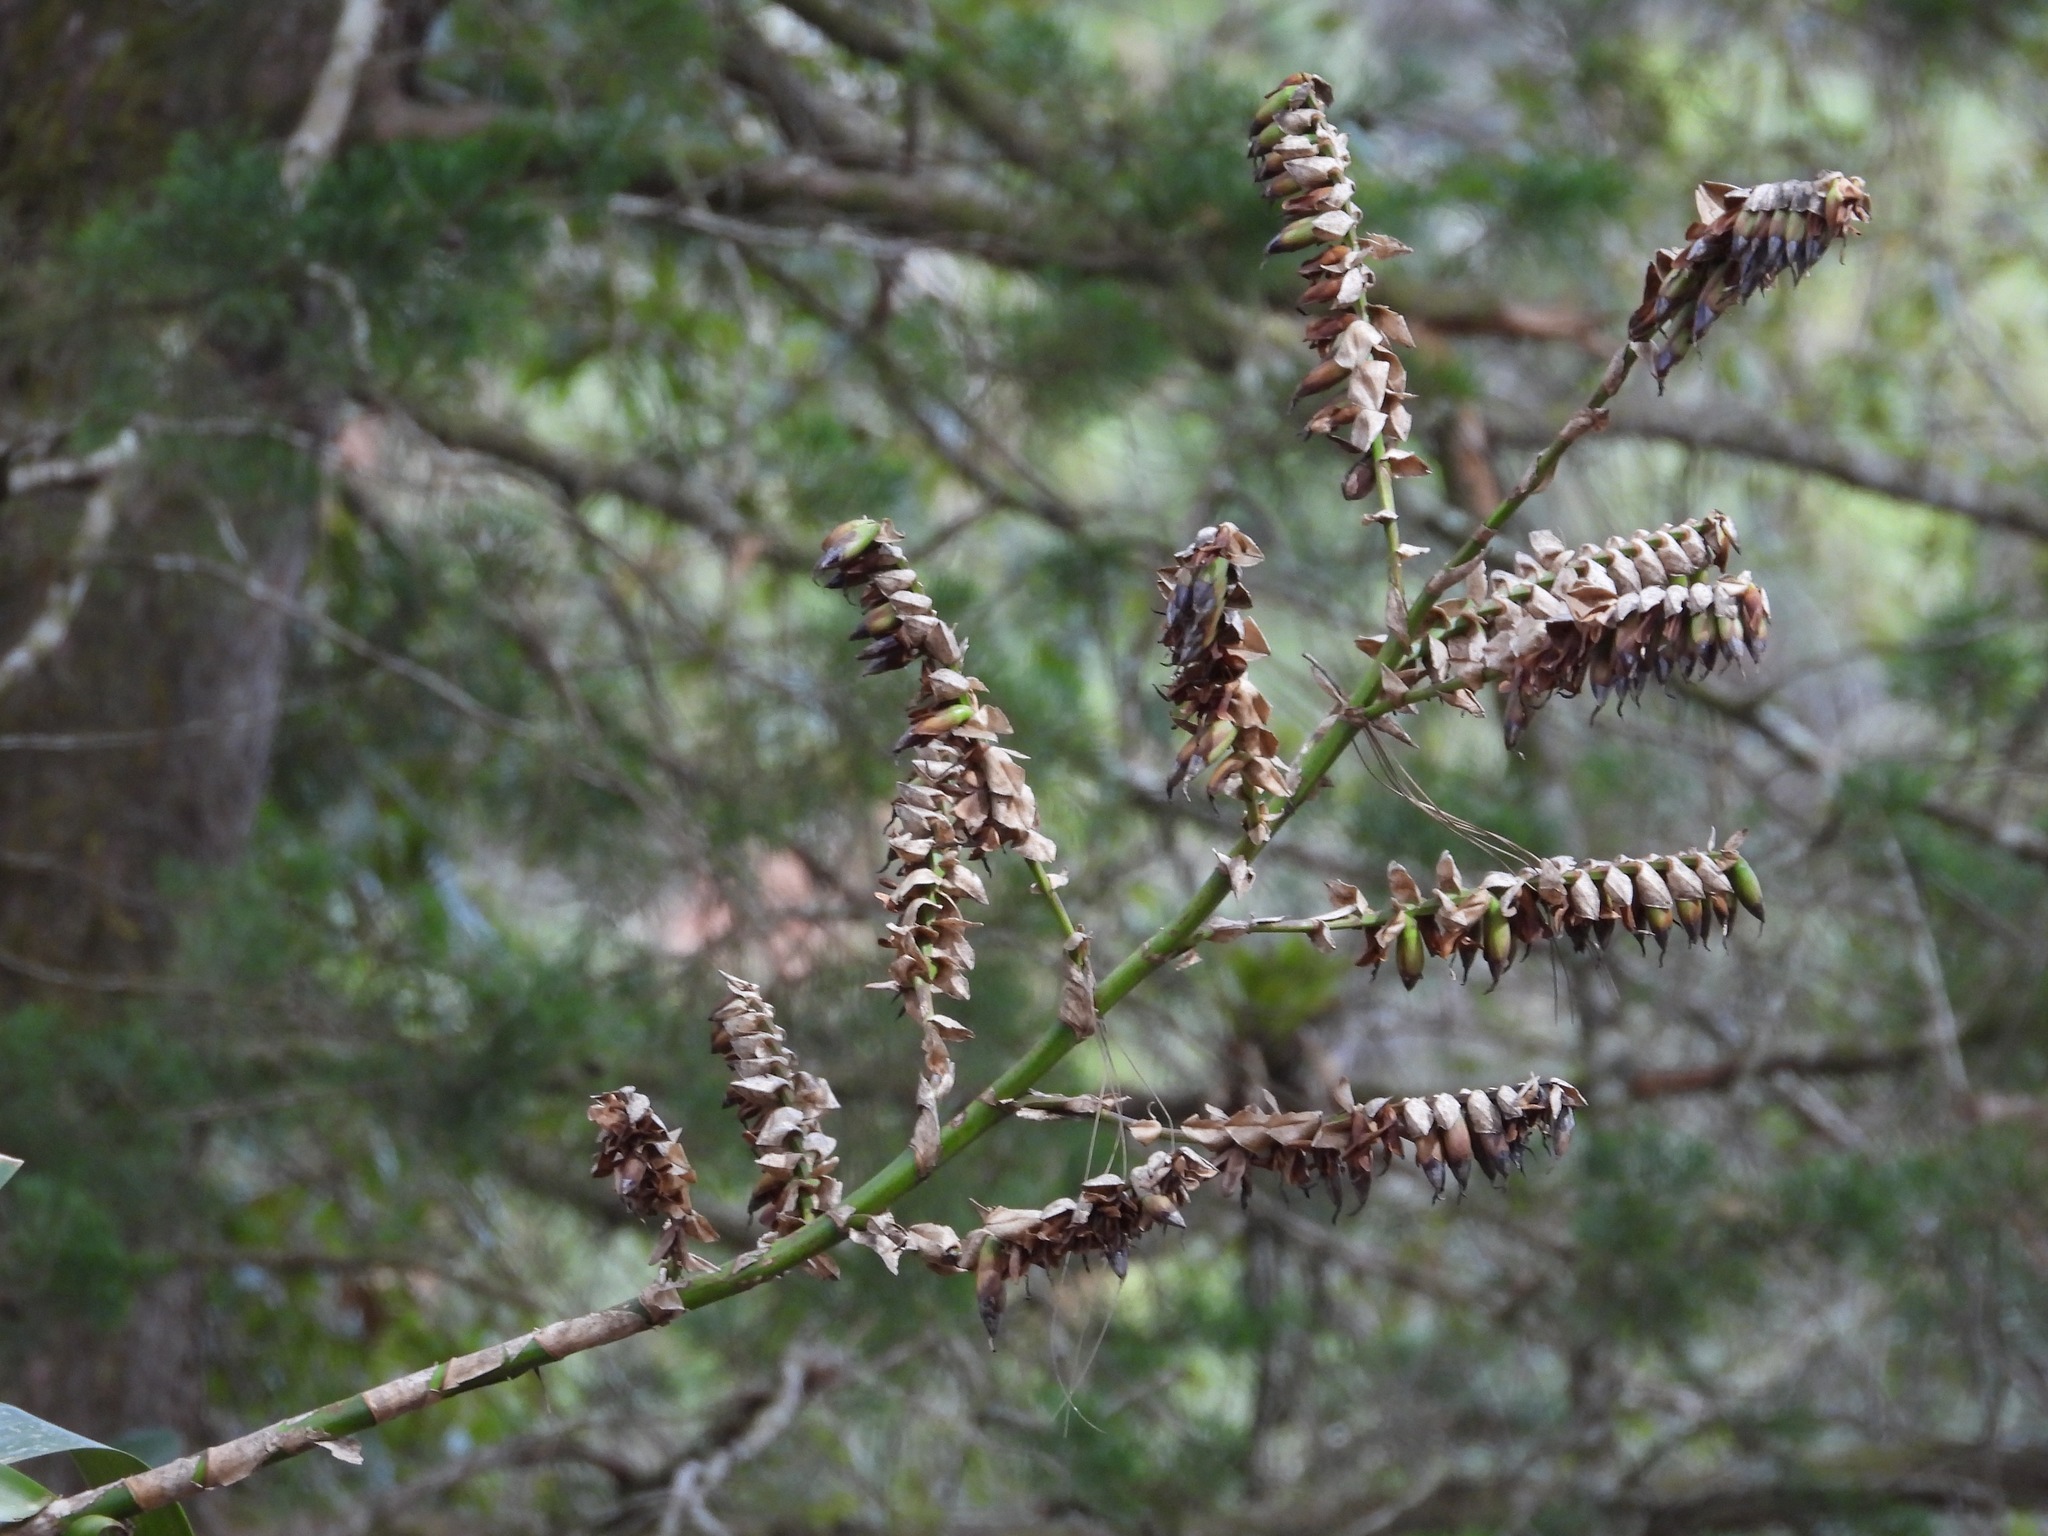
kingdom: Plantae
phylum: Tracheophyta
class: Liliopsida
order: Poales
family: Bromeliaceae
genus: Werauhia
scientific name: Werauhia werckleana
